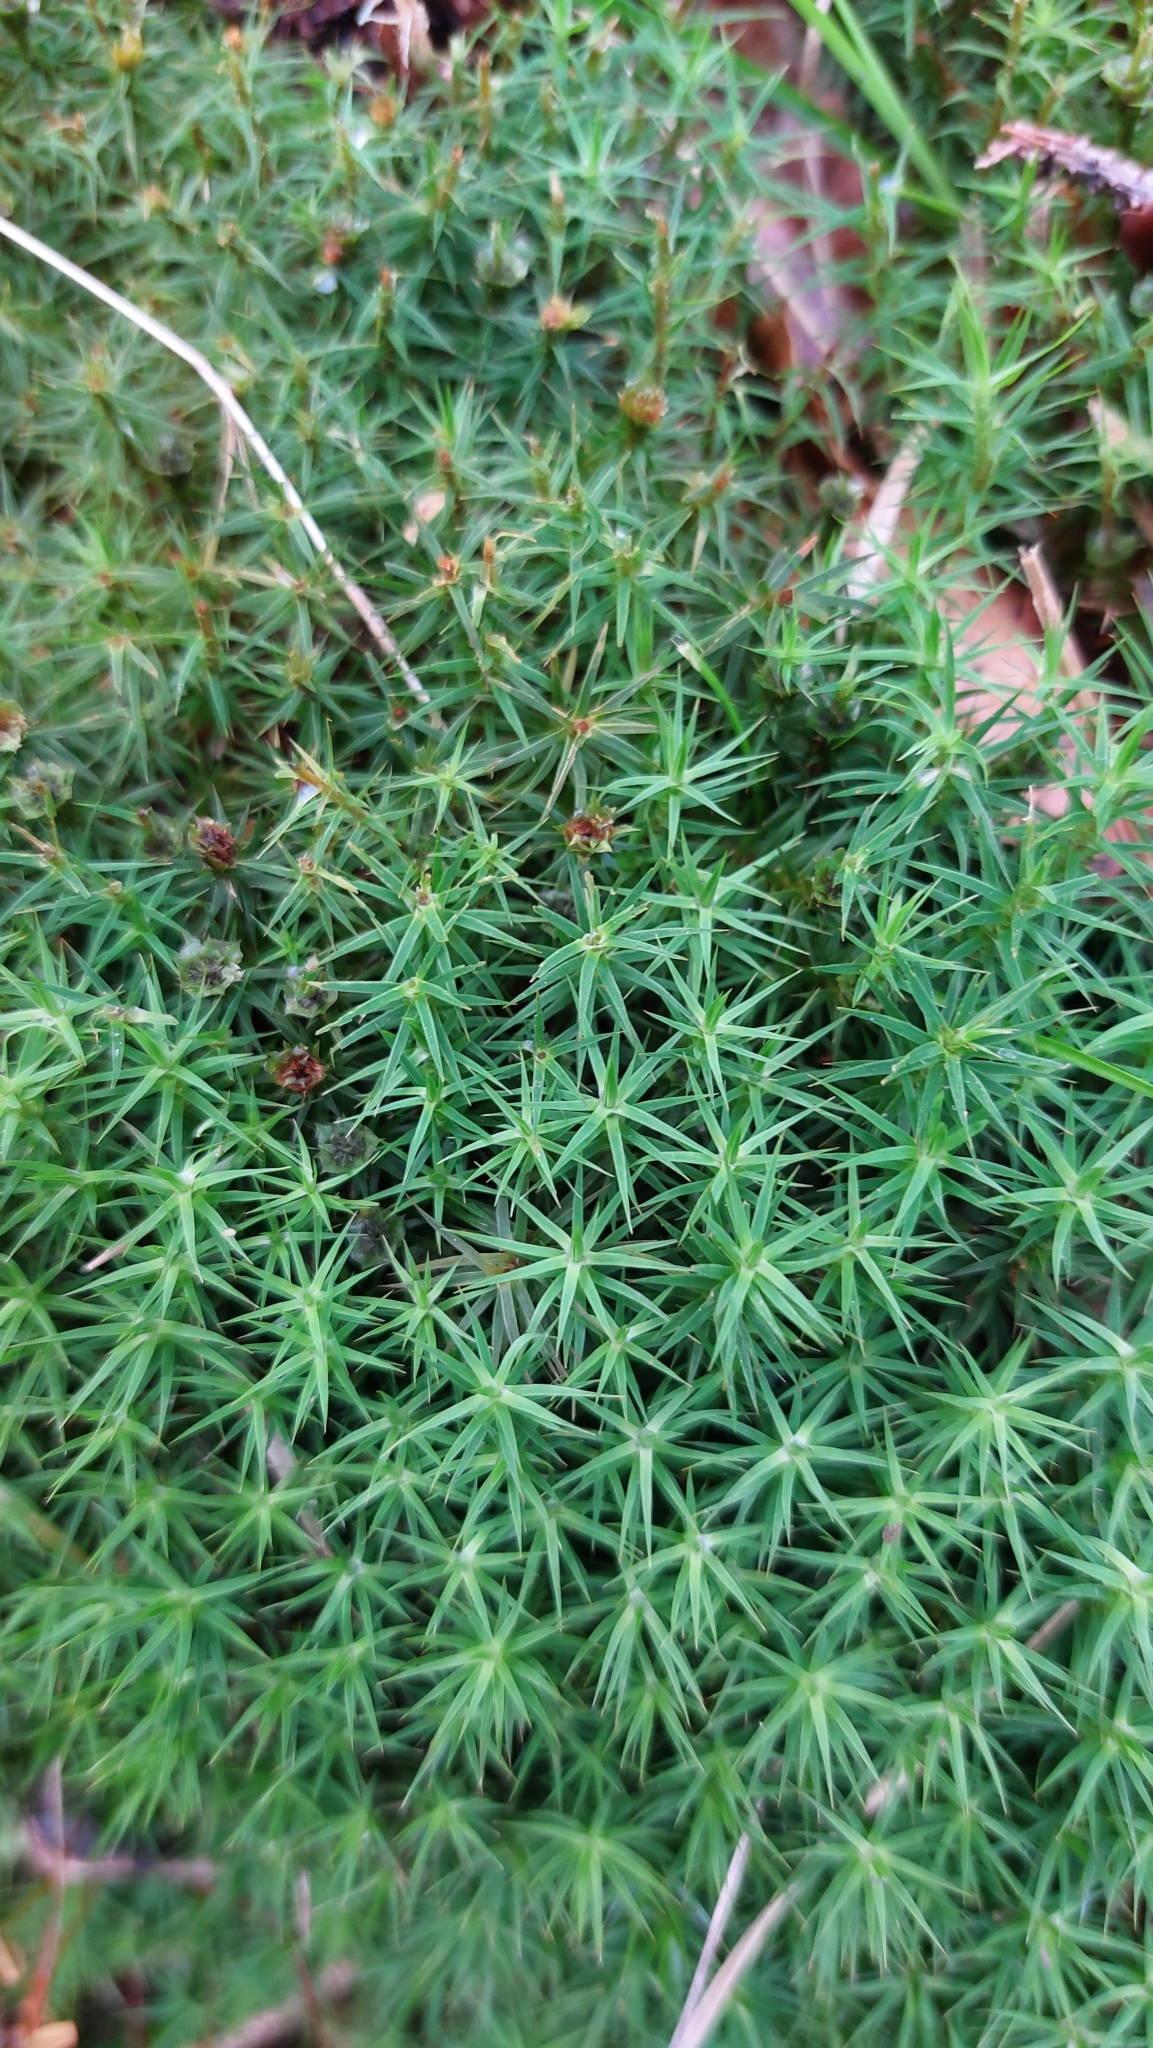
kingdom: Plantae
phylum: Bryophyta
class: Polytrichopsida
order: Polytrichales
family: Polytrichaceae
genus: Polytrichum
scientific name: Polytrichum formosum
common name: Bank haircap moss
